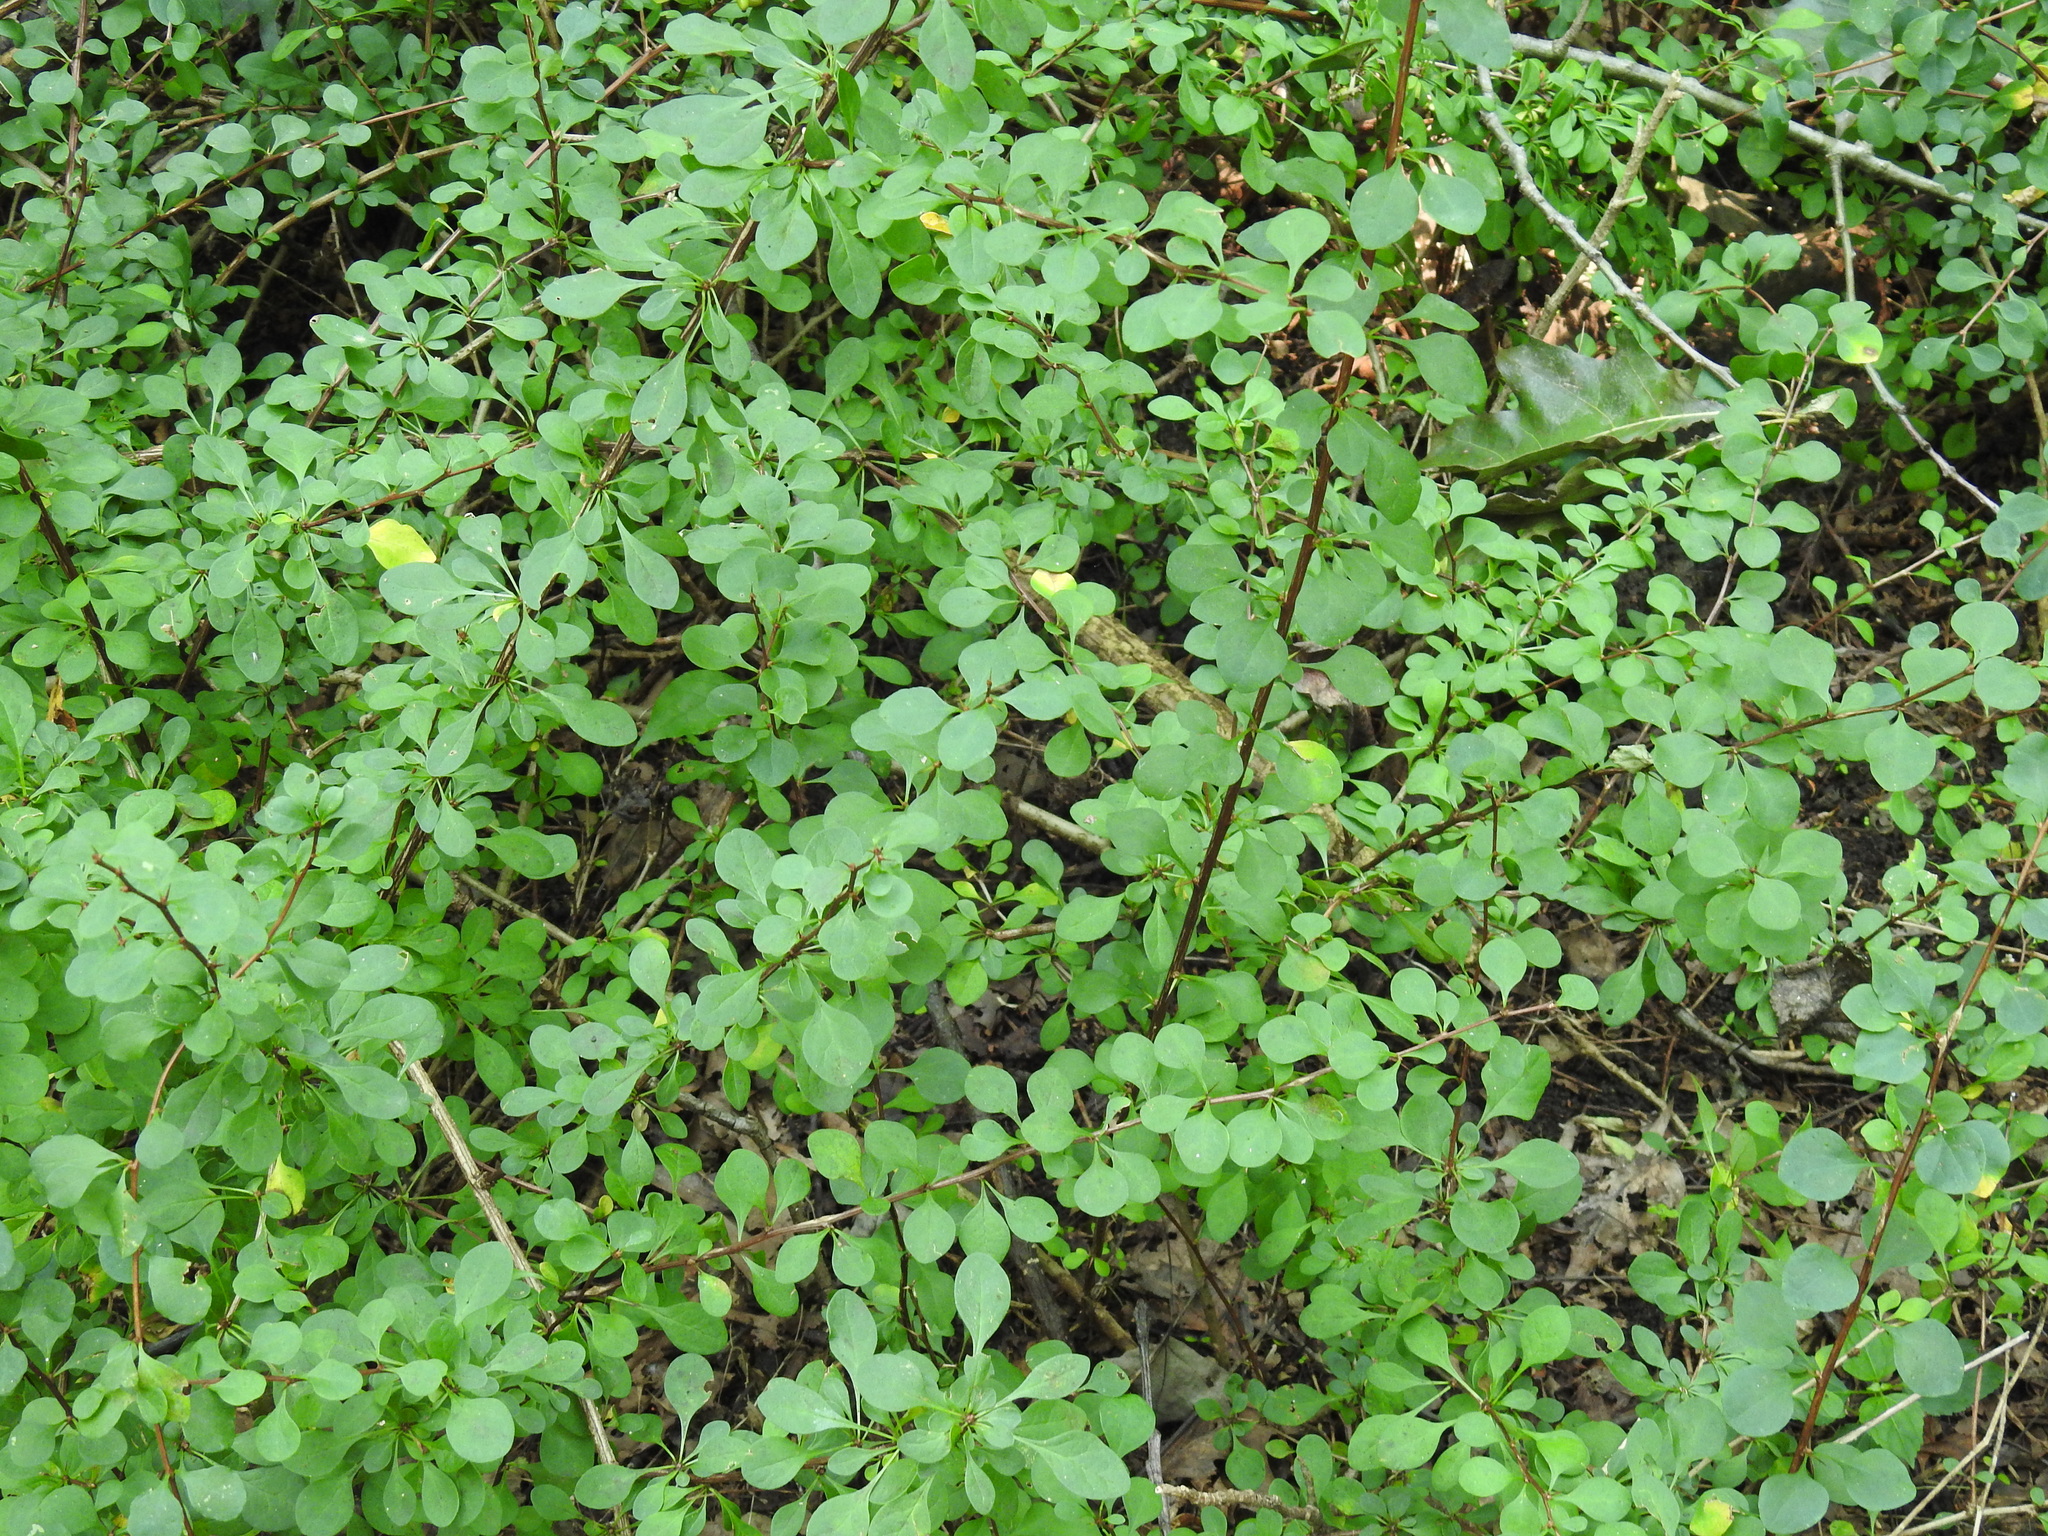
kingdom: Plantae
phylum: Tracheophyta
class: Magnoliopsida
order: Ranunculales
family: Berberidaceae
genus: Berberis
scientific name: Berberis thunbergii
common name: Japanese barberry
